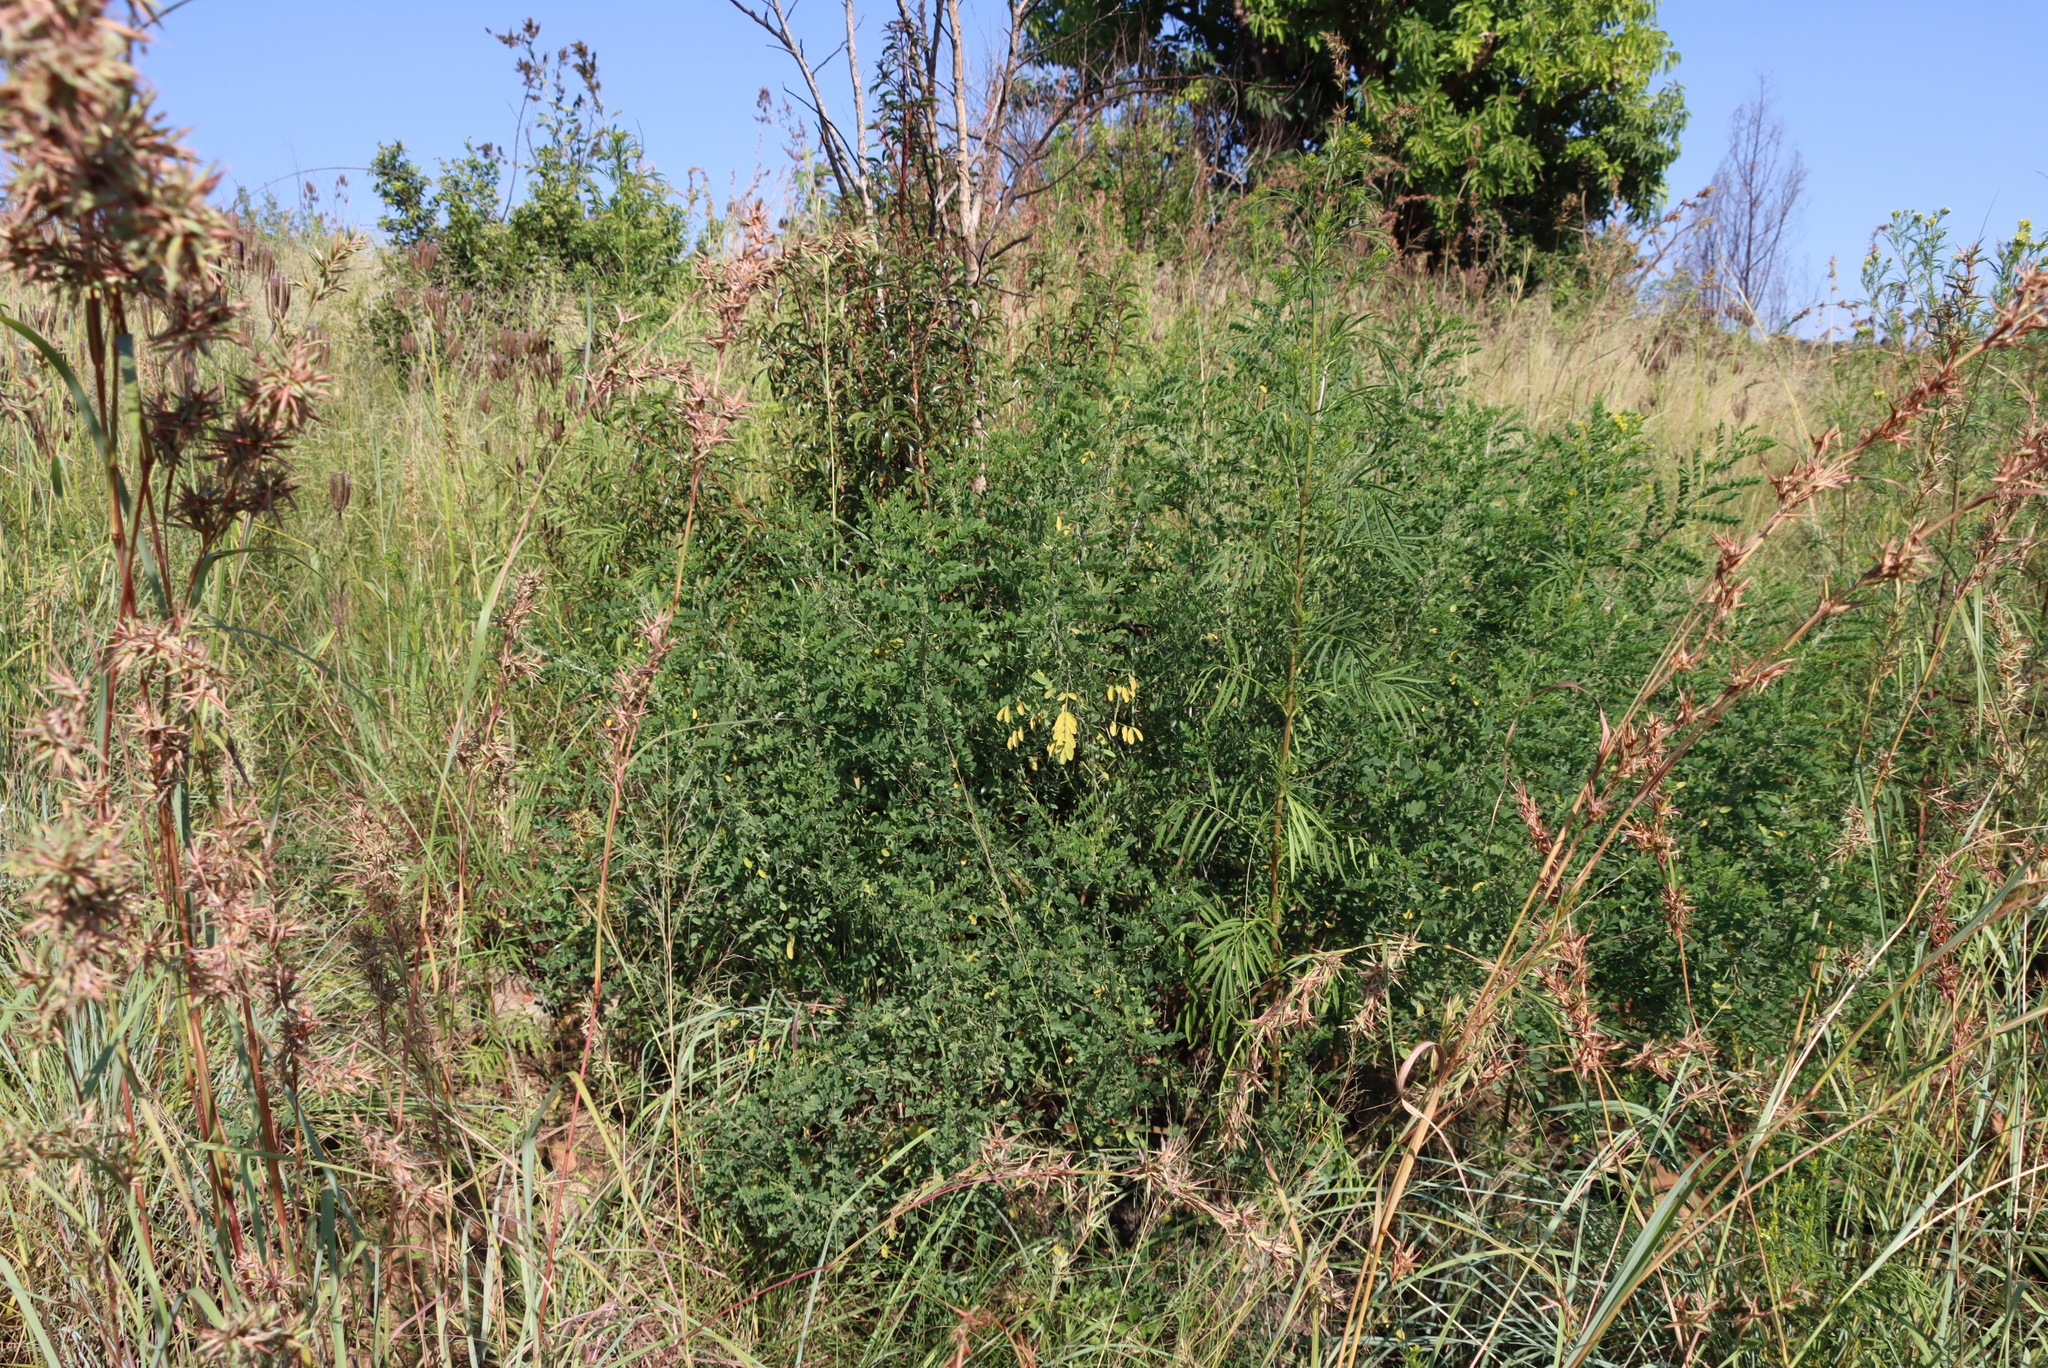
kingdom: Plantae
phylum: Tracheophyta
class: Magnoliopsida
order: Asterales
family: Asteraceae
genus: Tagetes
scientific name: Tagetes minuta
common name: Muster john henry
